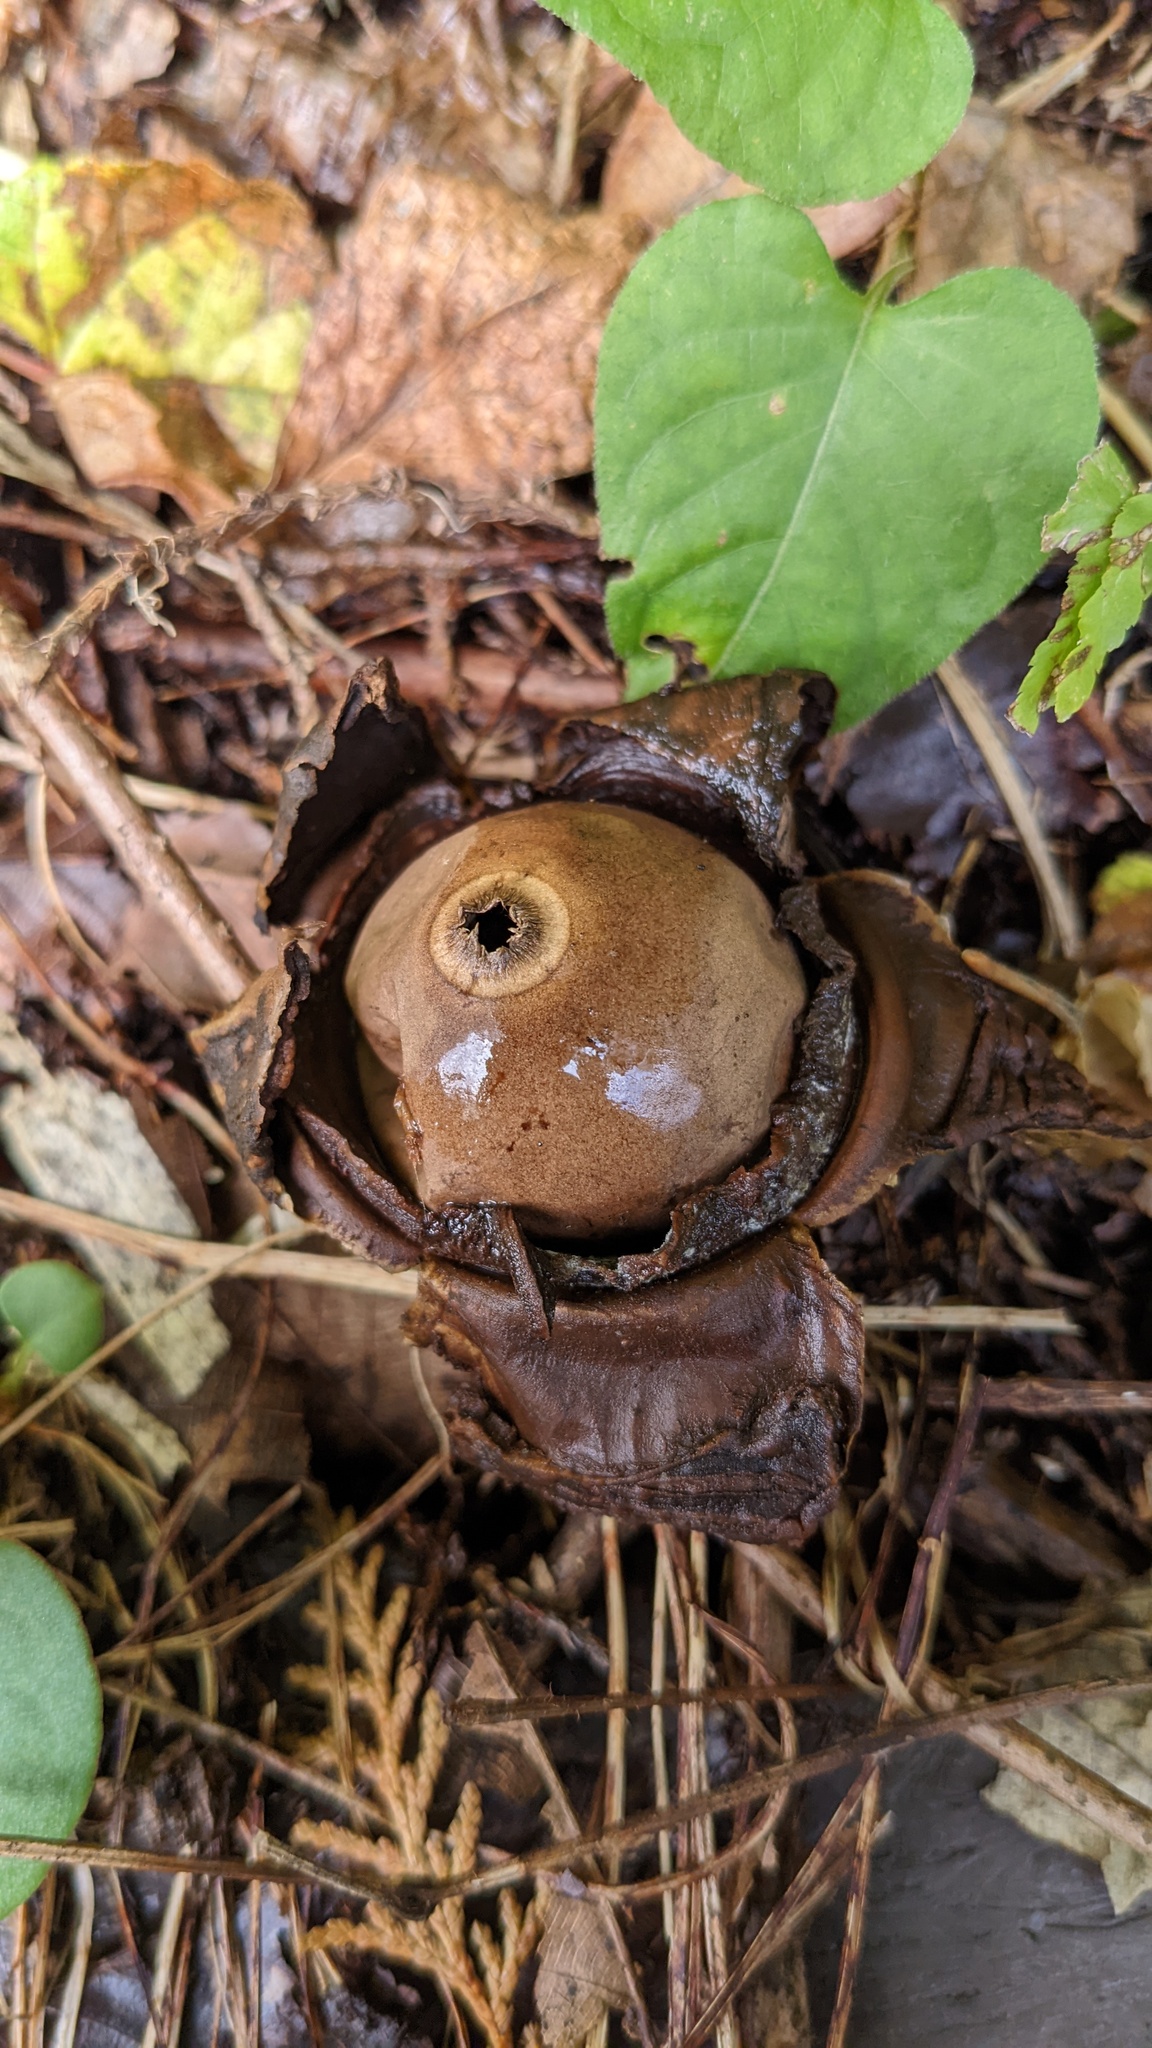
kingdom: Fungi
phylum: Basidiomycota
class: Agaricomycetes
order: Geastrales
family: Geastraceae
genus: Geastrum
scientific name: Geastrum triplex
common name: Collared earthstar
